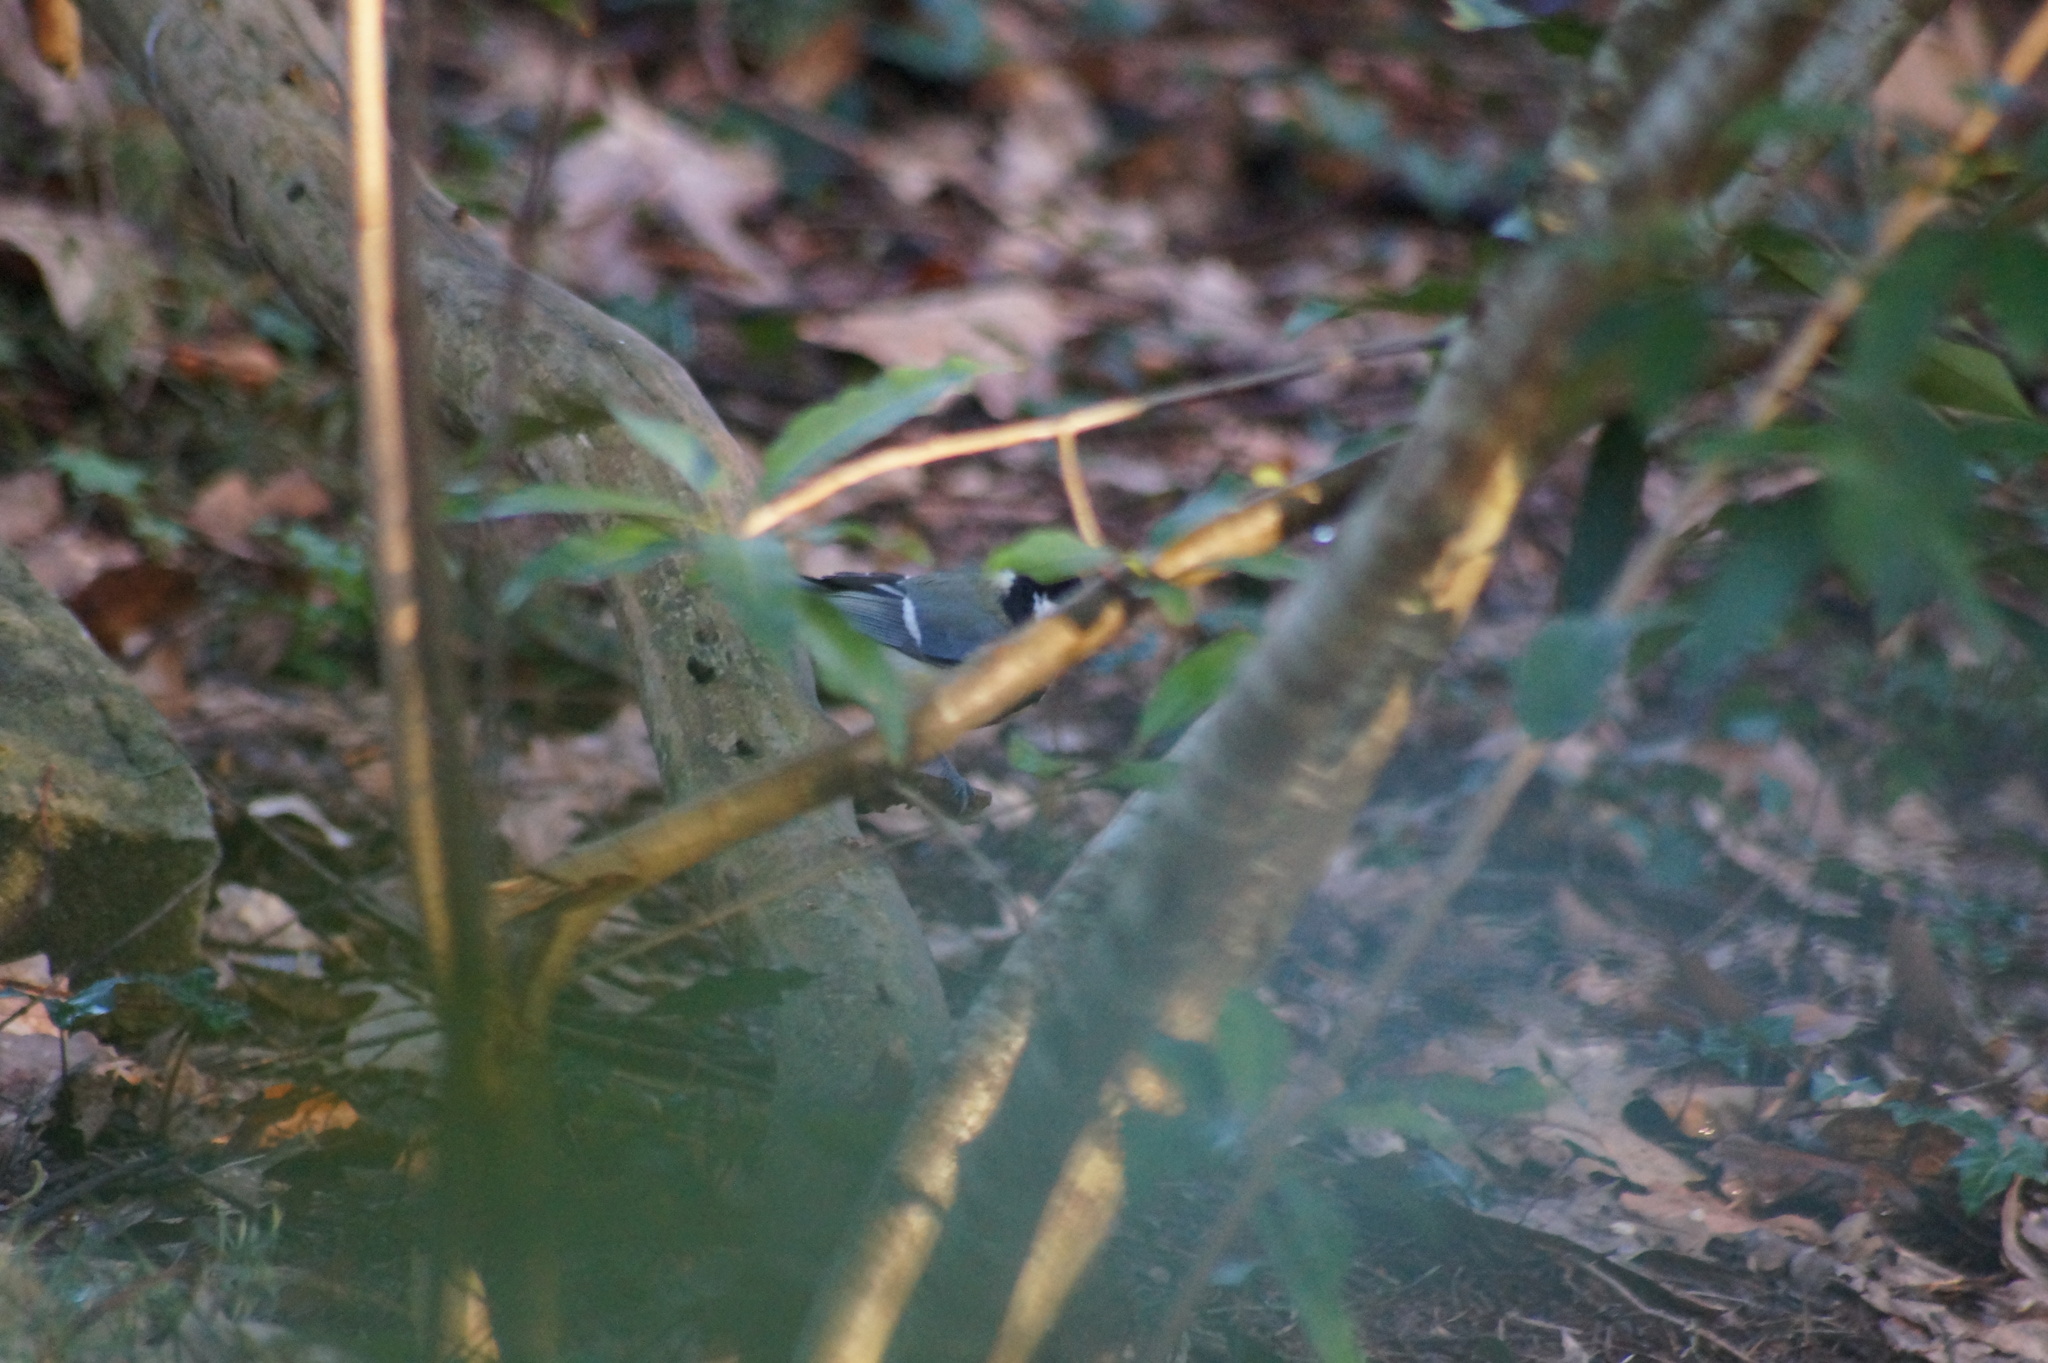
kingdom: Animalia
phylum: Chordata
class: Aves
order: Passeriformes
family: Paridae
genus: Parus
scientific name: Parus major
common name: Great tit
